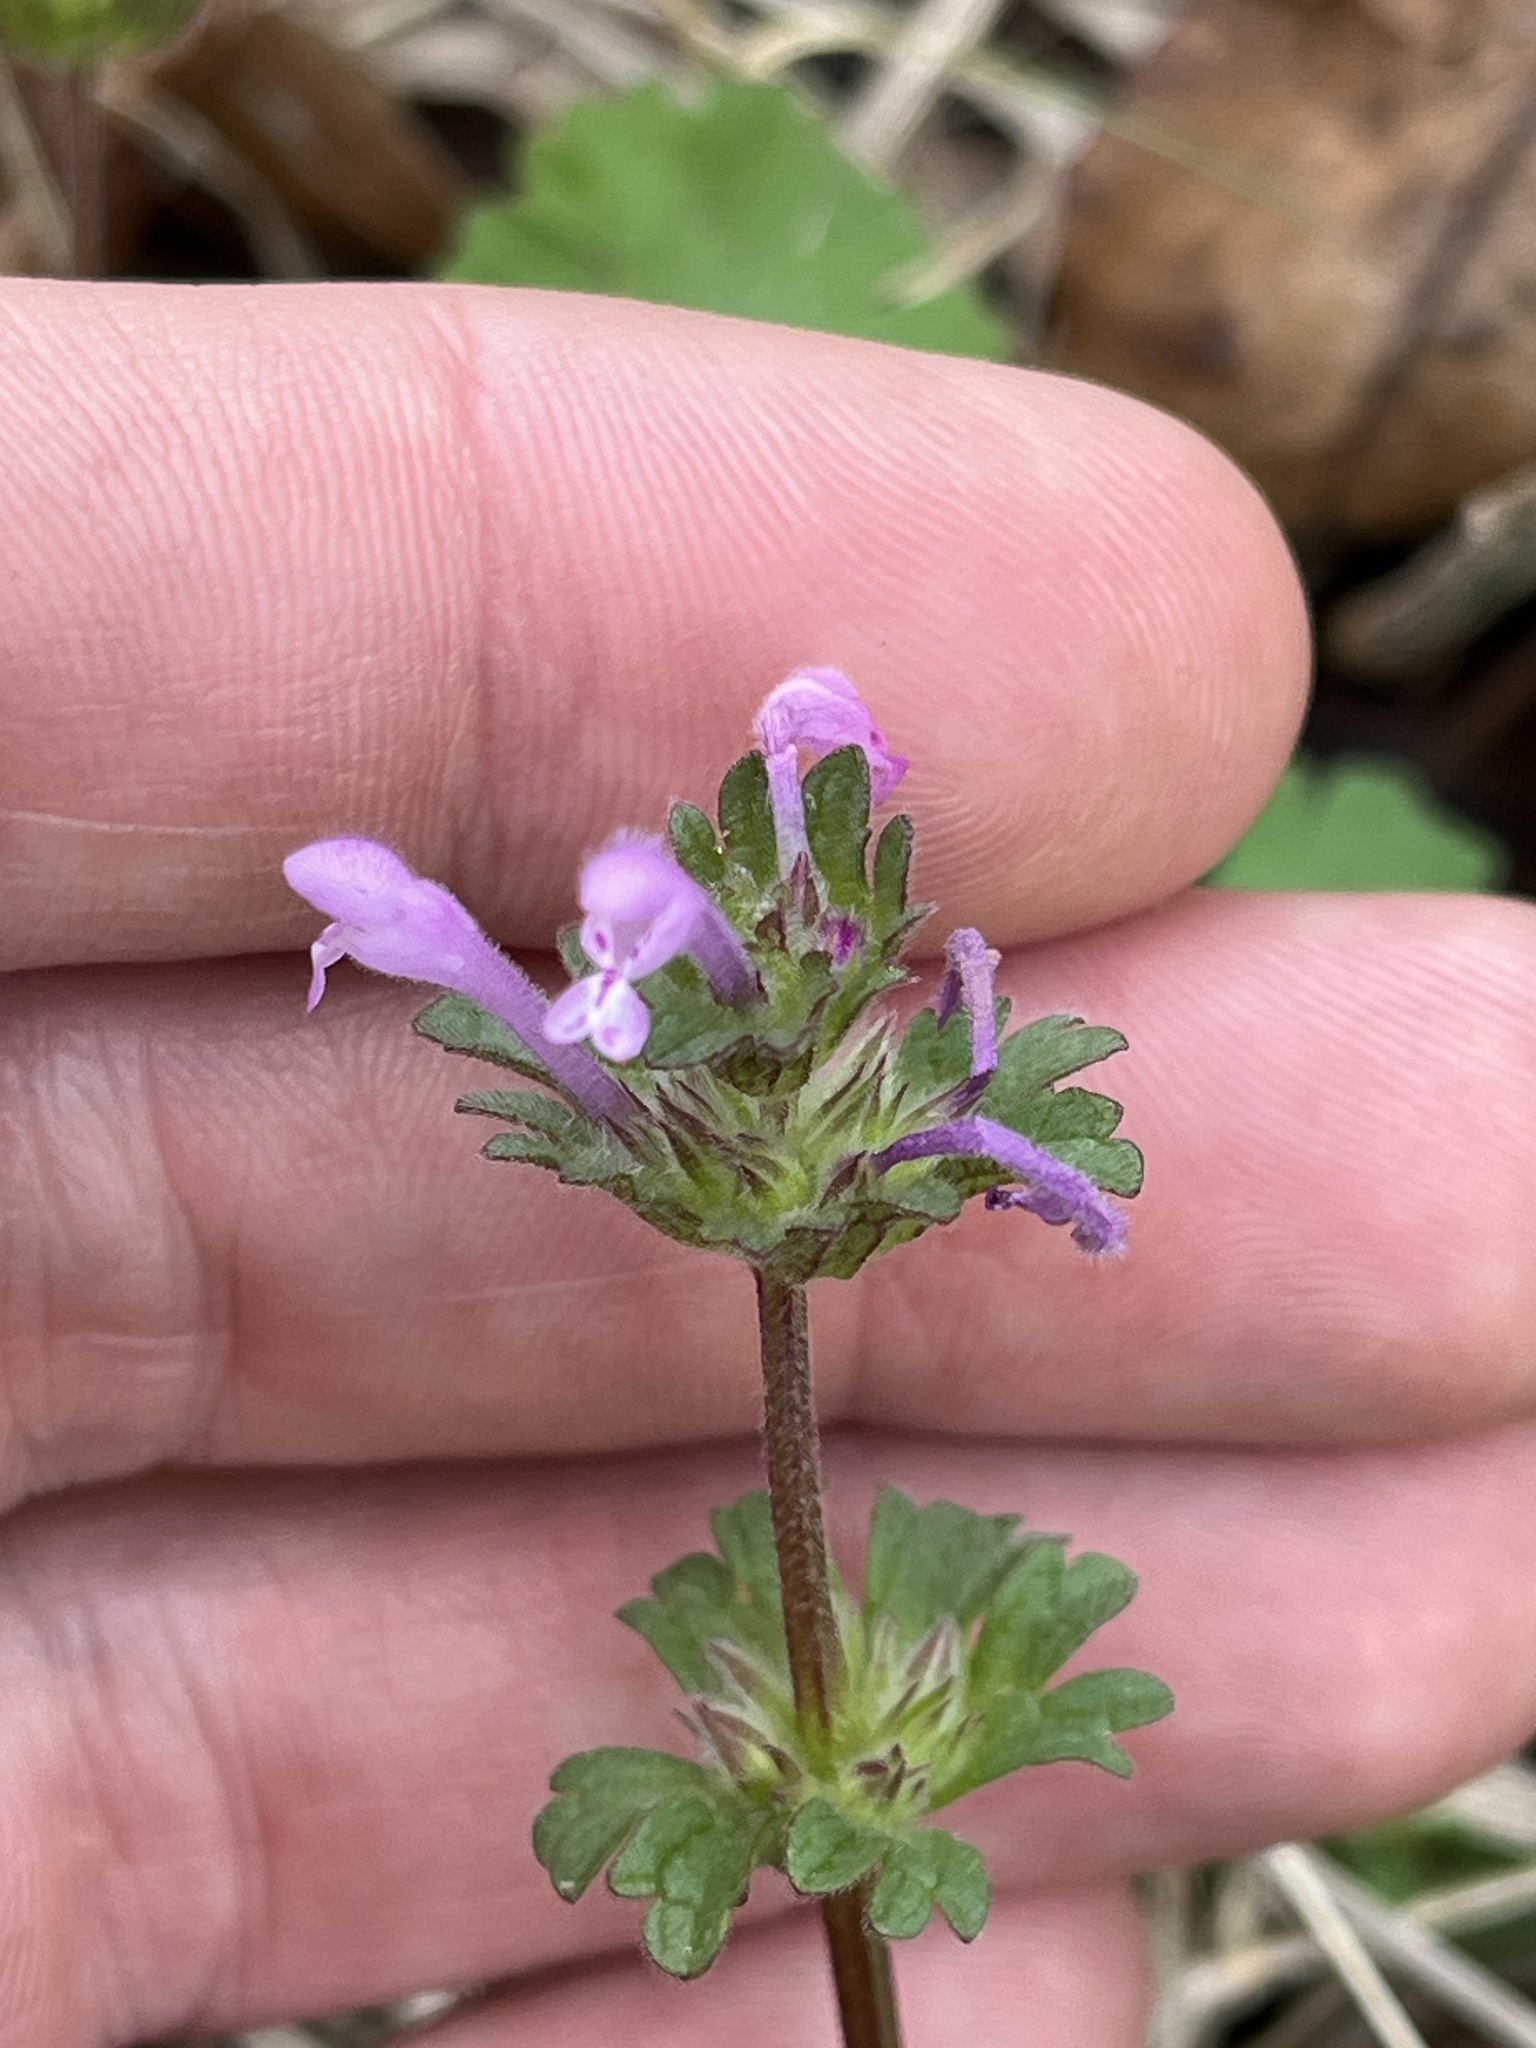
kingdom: Plantae
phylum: Tracheophyta
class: Magnoliopsida
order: Lamiales
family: Lamiaceae
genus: Lamium
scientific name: Lamium amplexicaule
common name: Henbit dead-nettle
